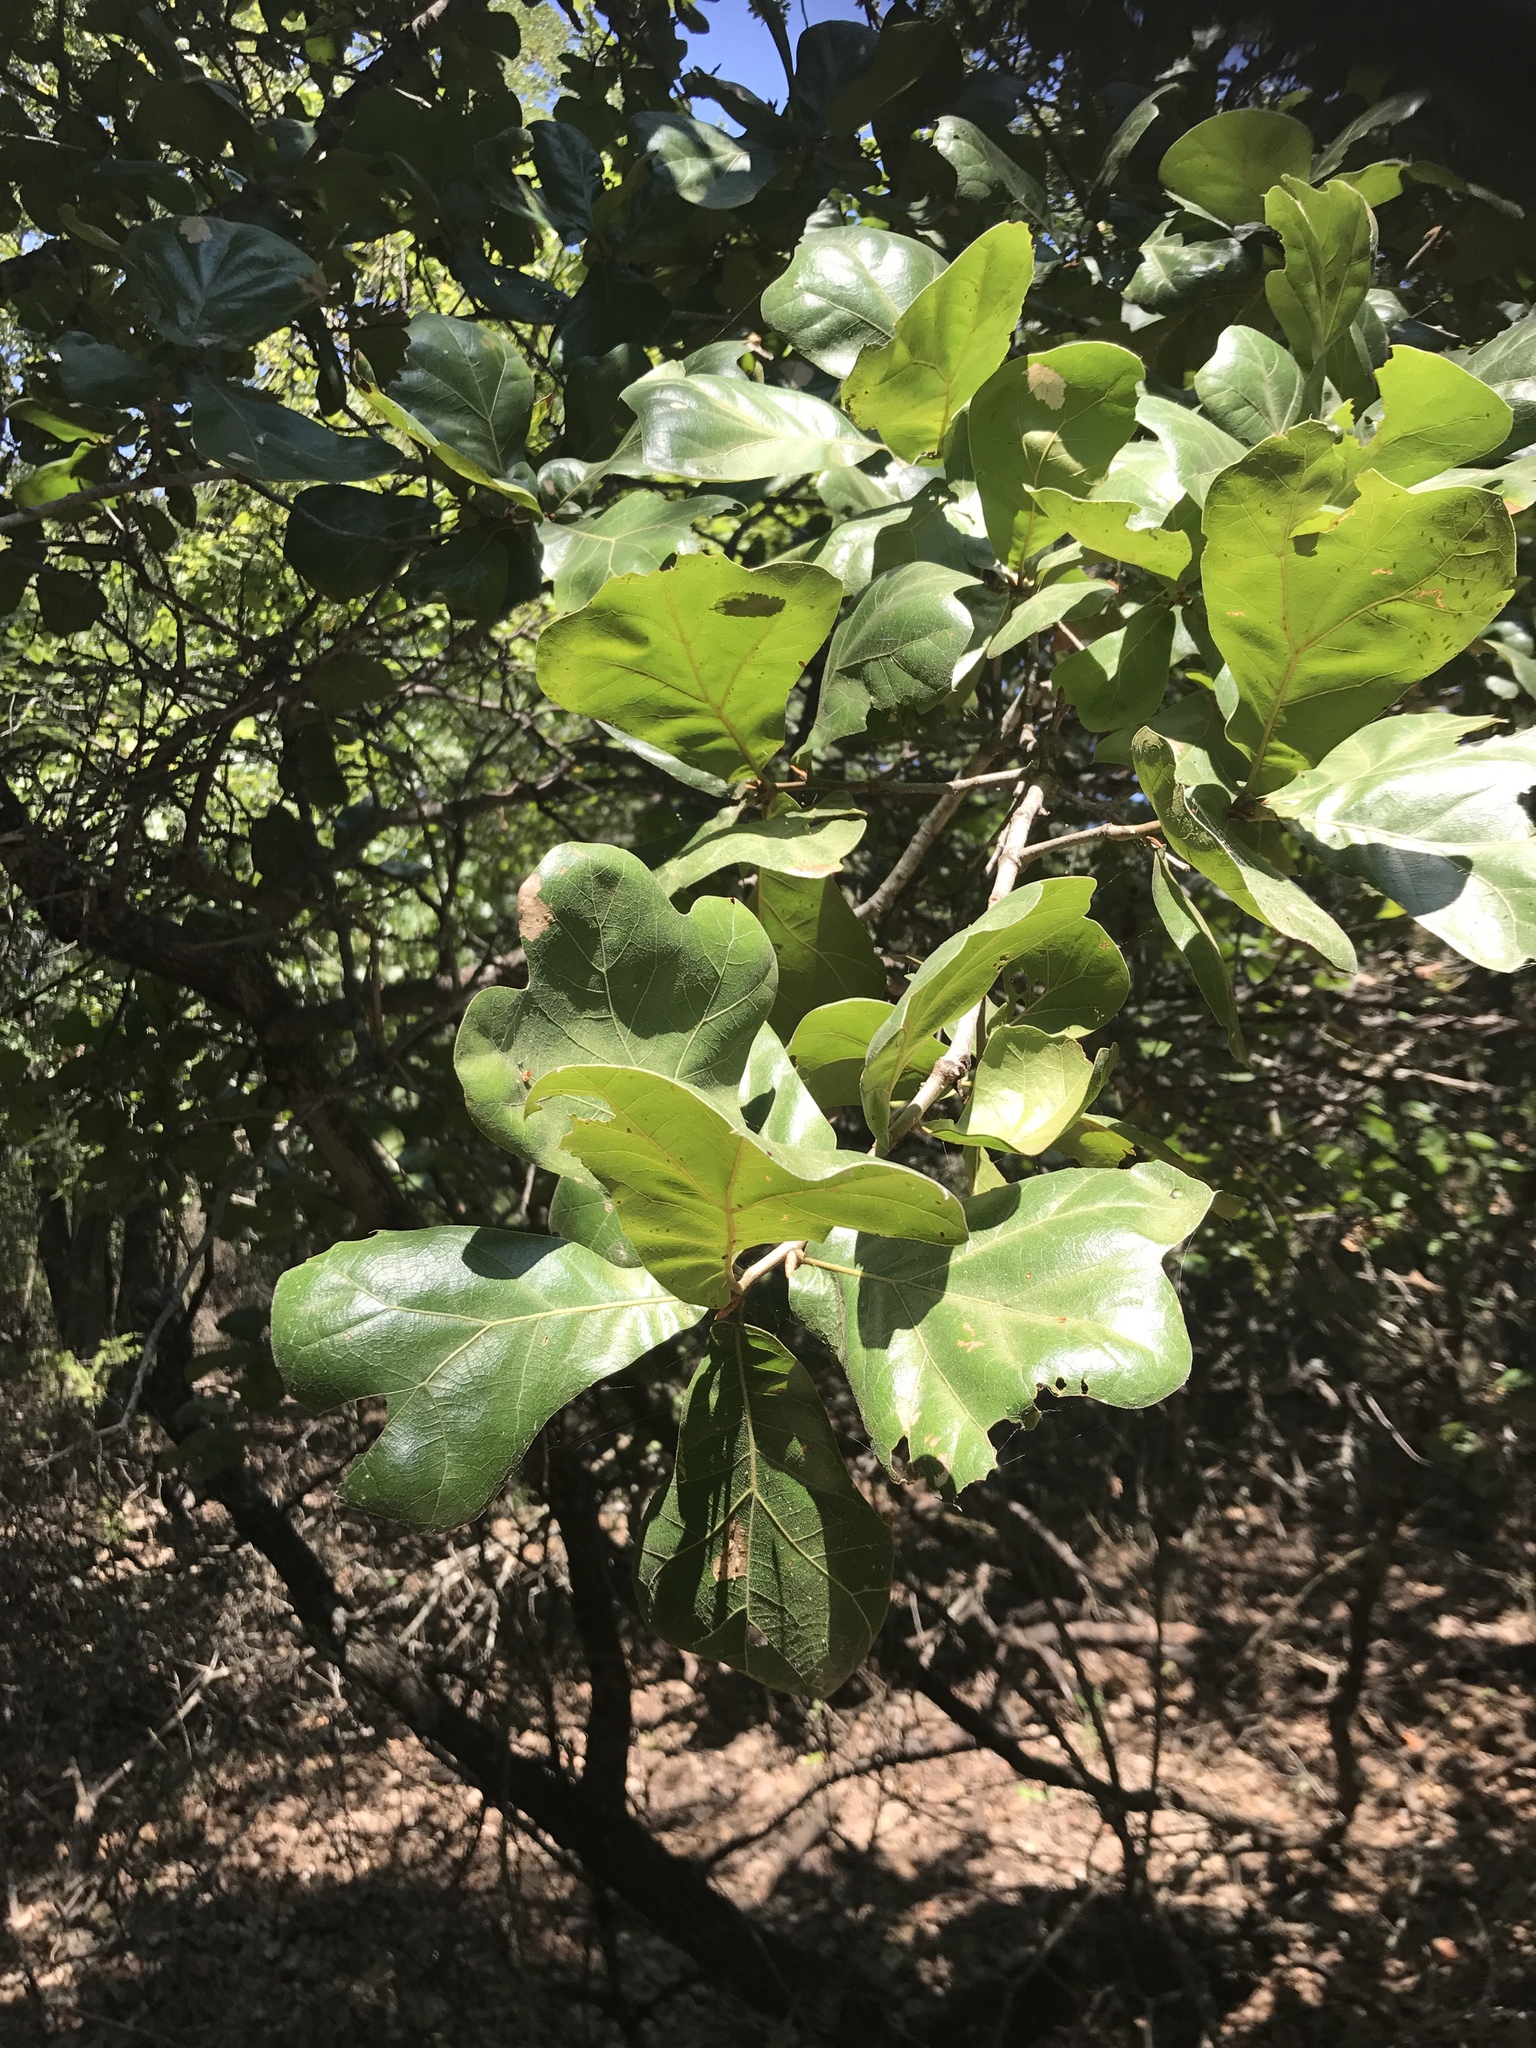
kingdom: Plantae
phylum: Tracheophyta
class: Magnoliopsida
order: Fagales
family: Fagaceae
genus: Quercus
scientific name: Quercus marilandica
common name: Blackjack oak
